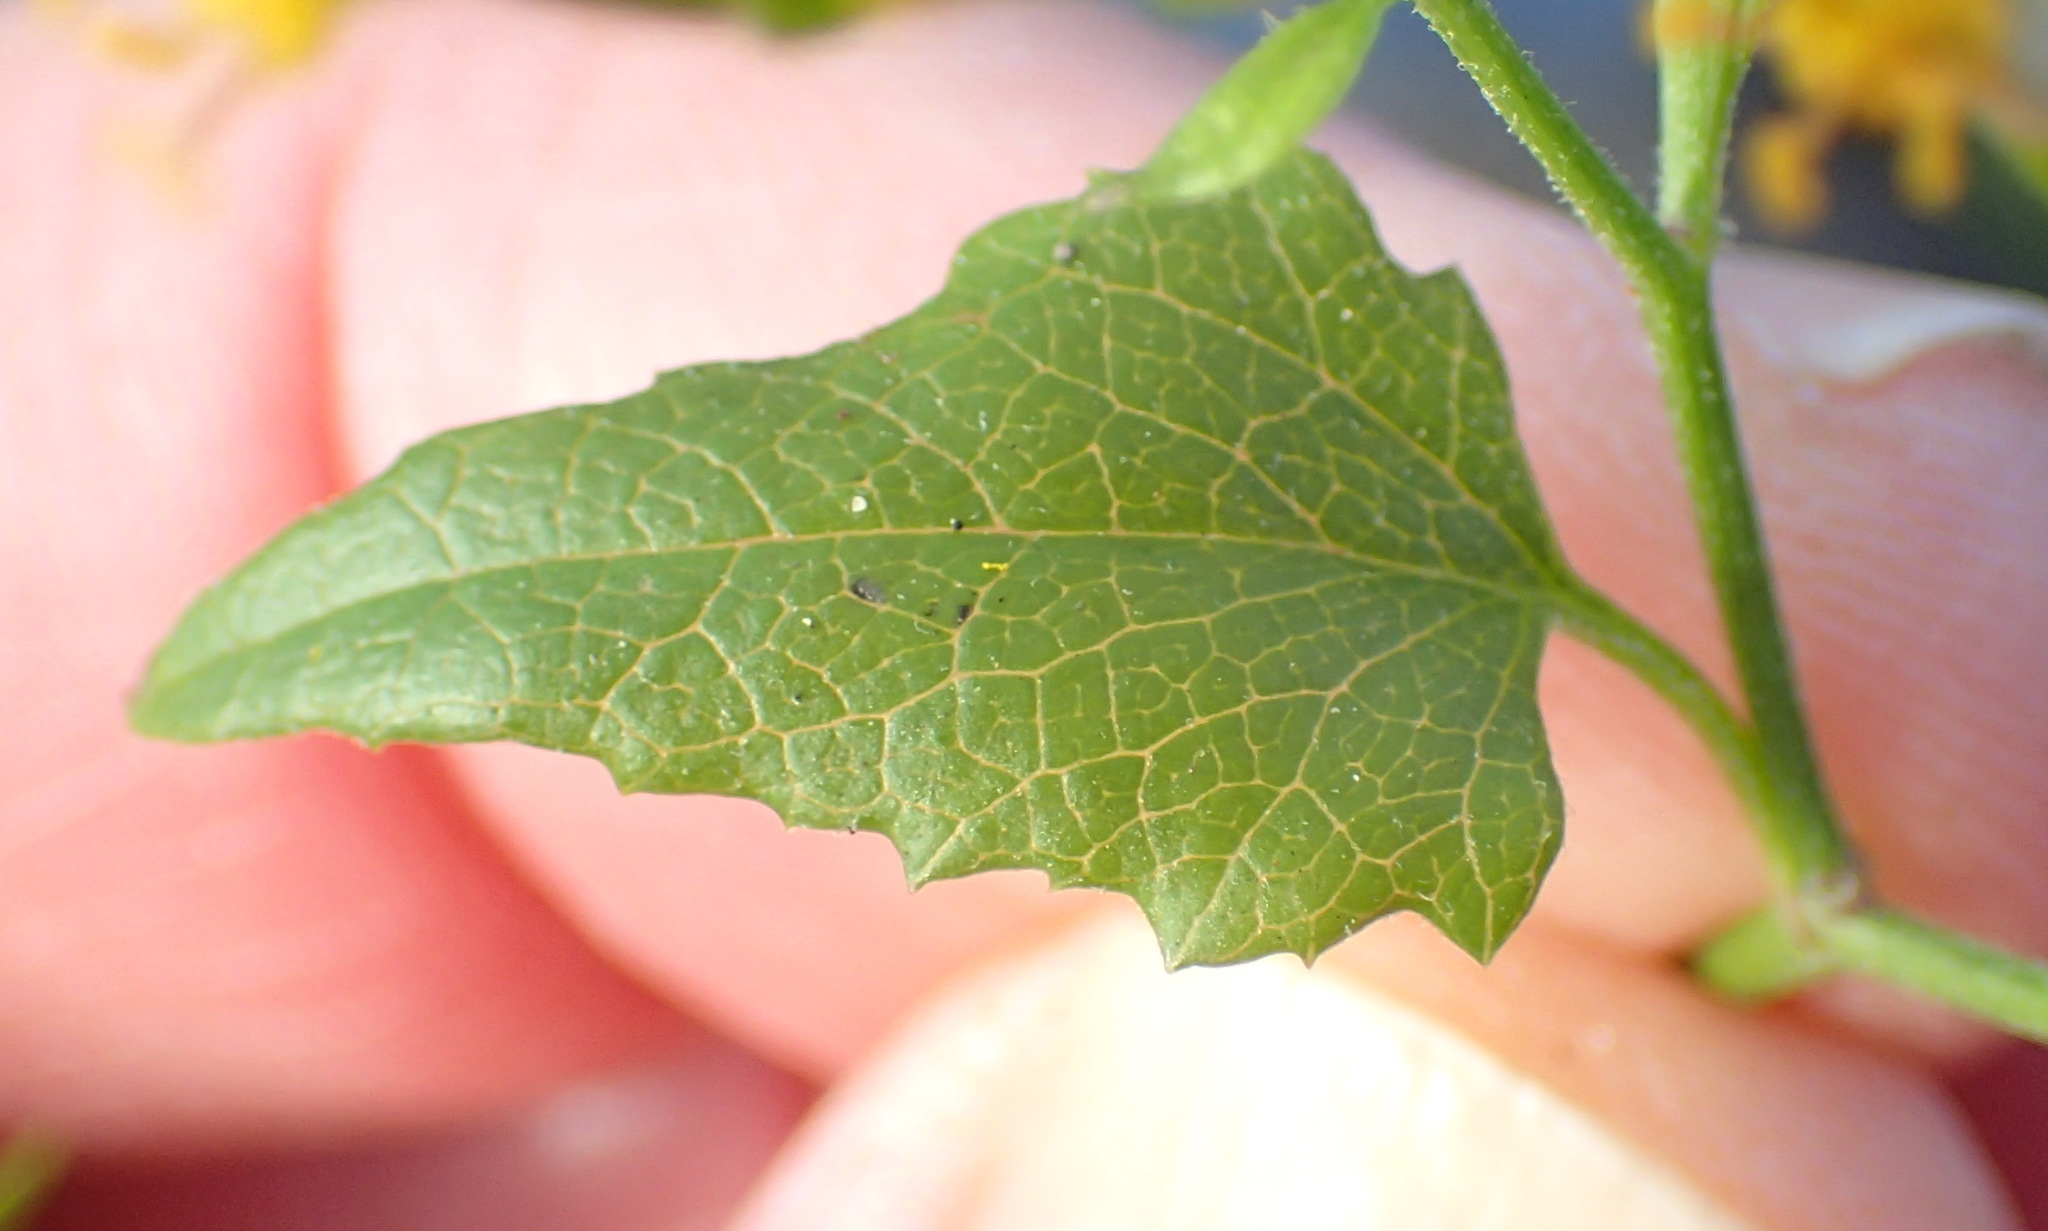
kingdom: Plantae
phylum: Tracheophyta
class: Magnoliopsida
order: Asterales
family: Asteraceae
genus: Senecio
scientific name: Senecio deltoideus
